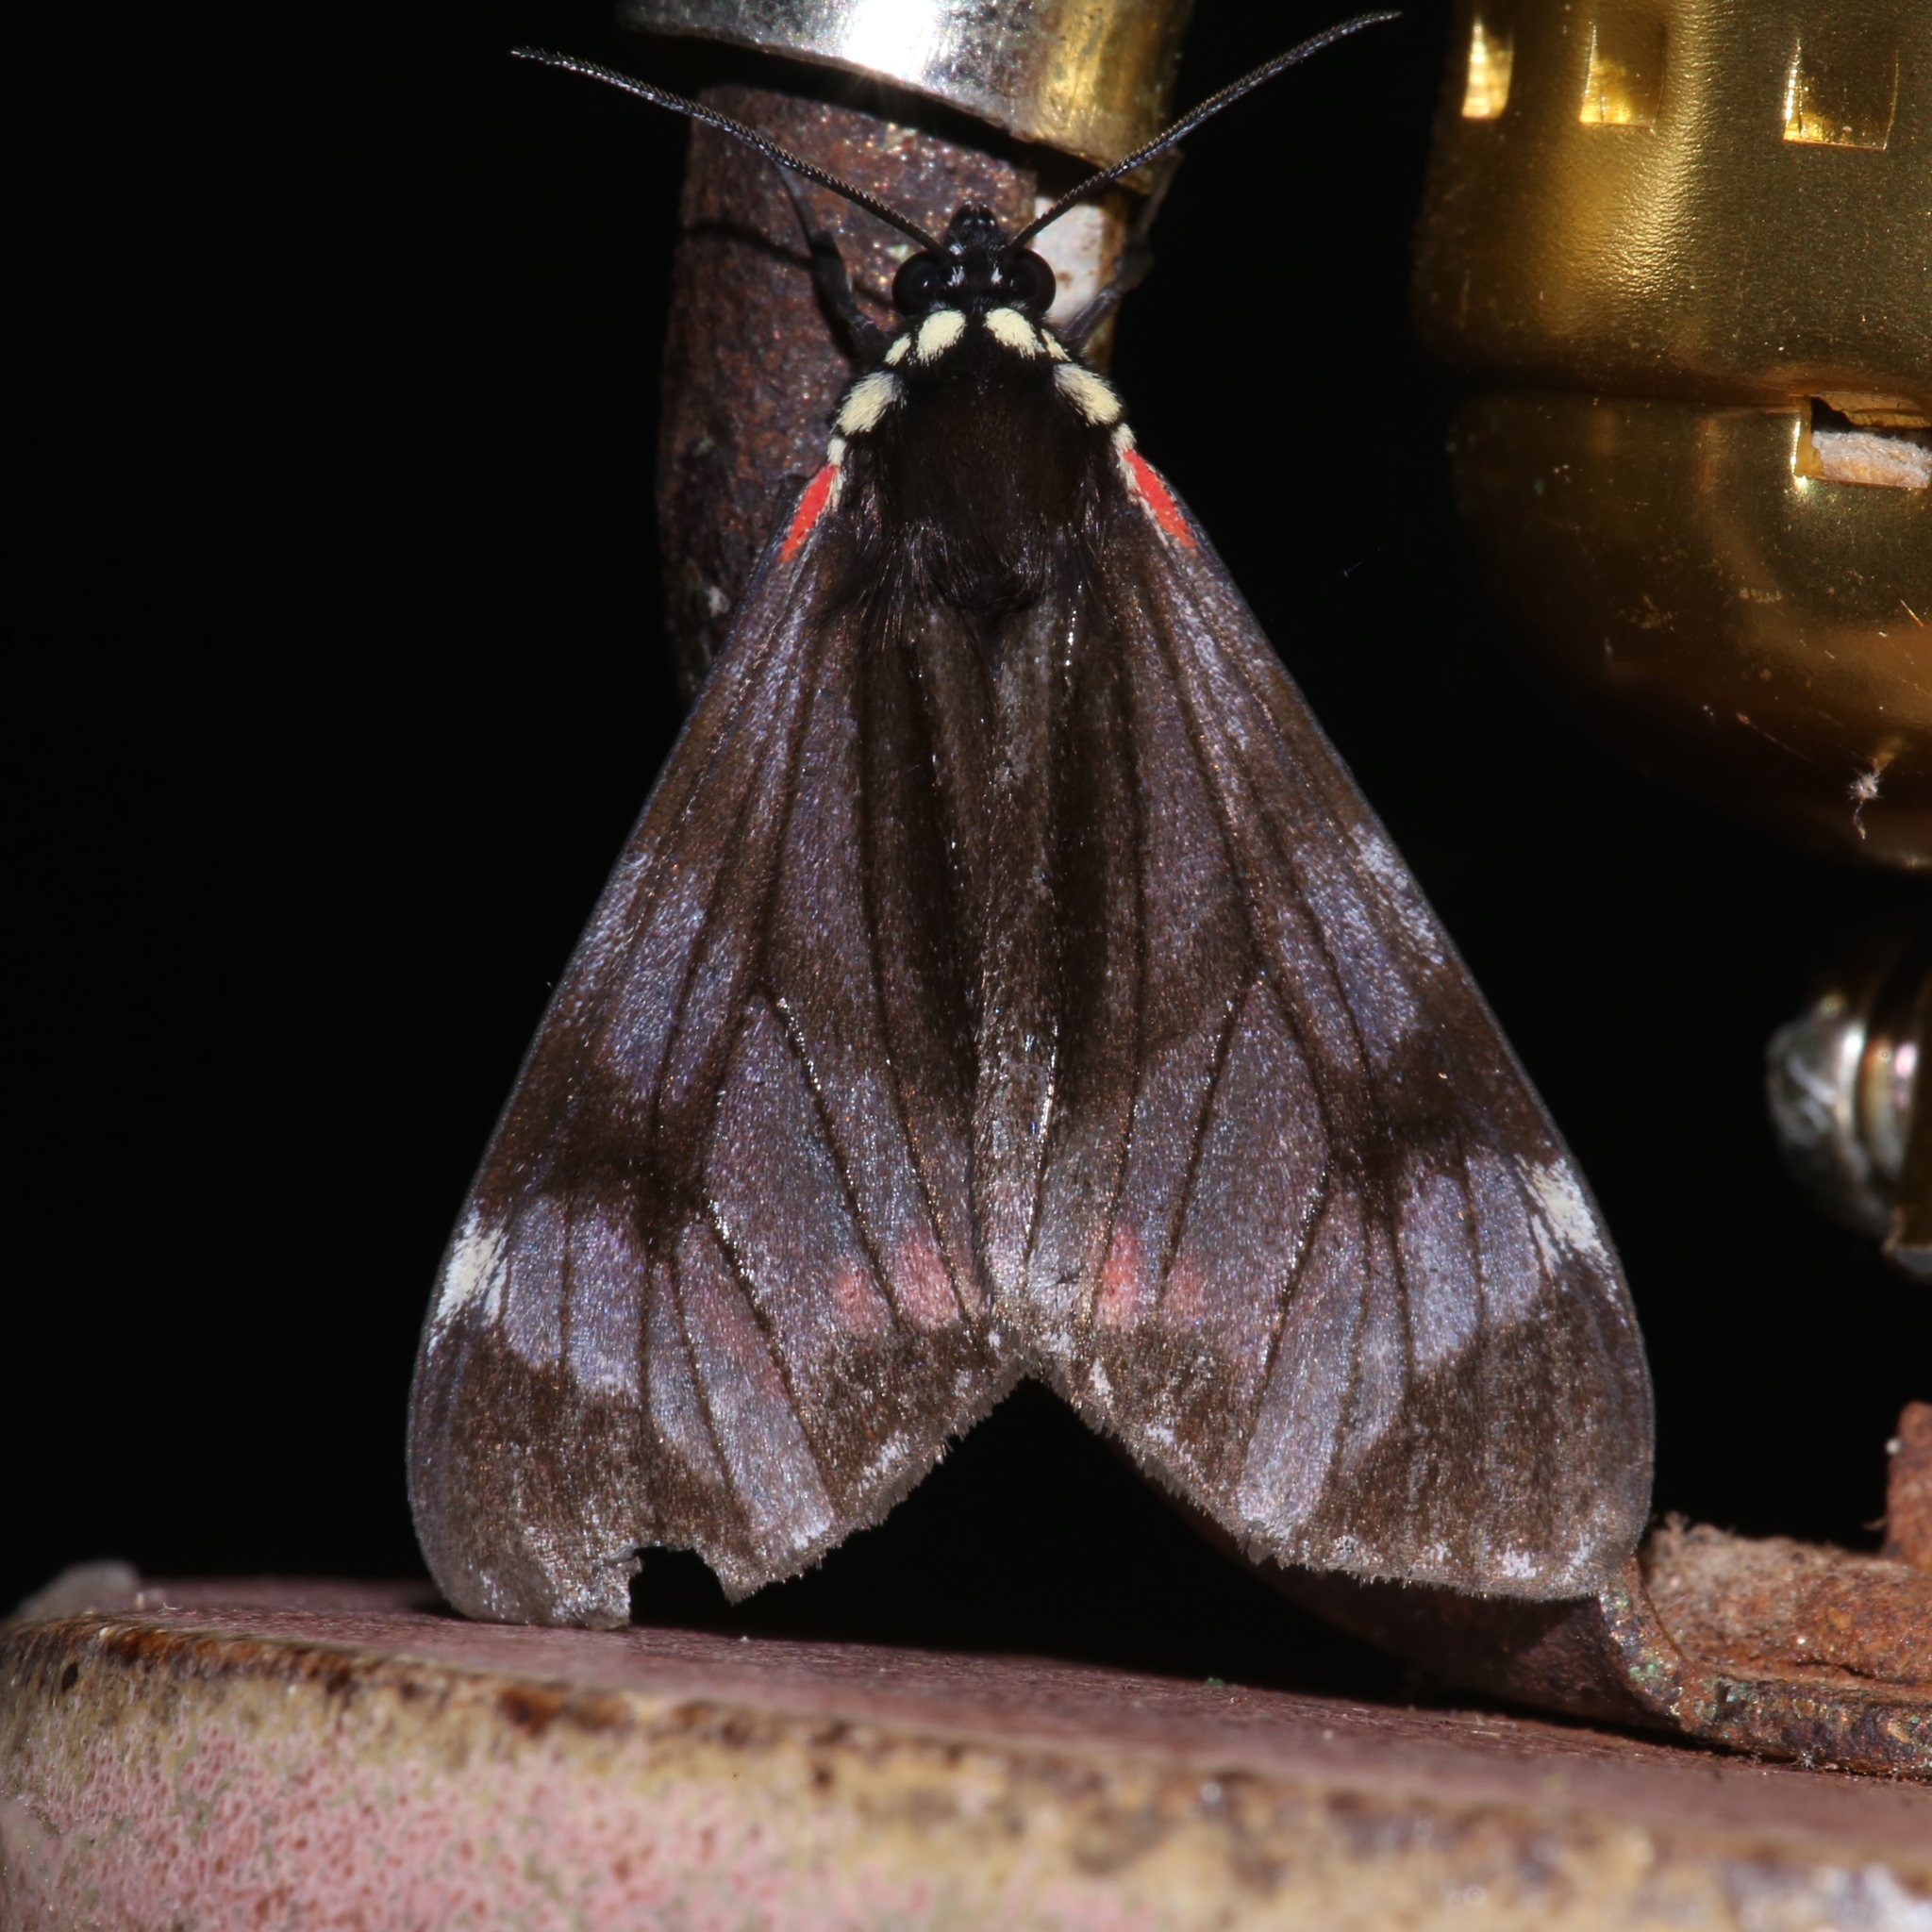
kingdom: Animalia
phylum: Arthropoda
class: Insecta
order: Lepidoptera
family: Erebidae
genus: Dysschema
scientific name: Dysschema leucophaea
